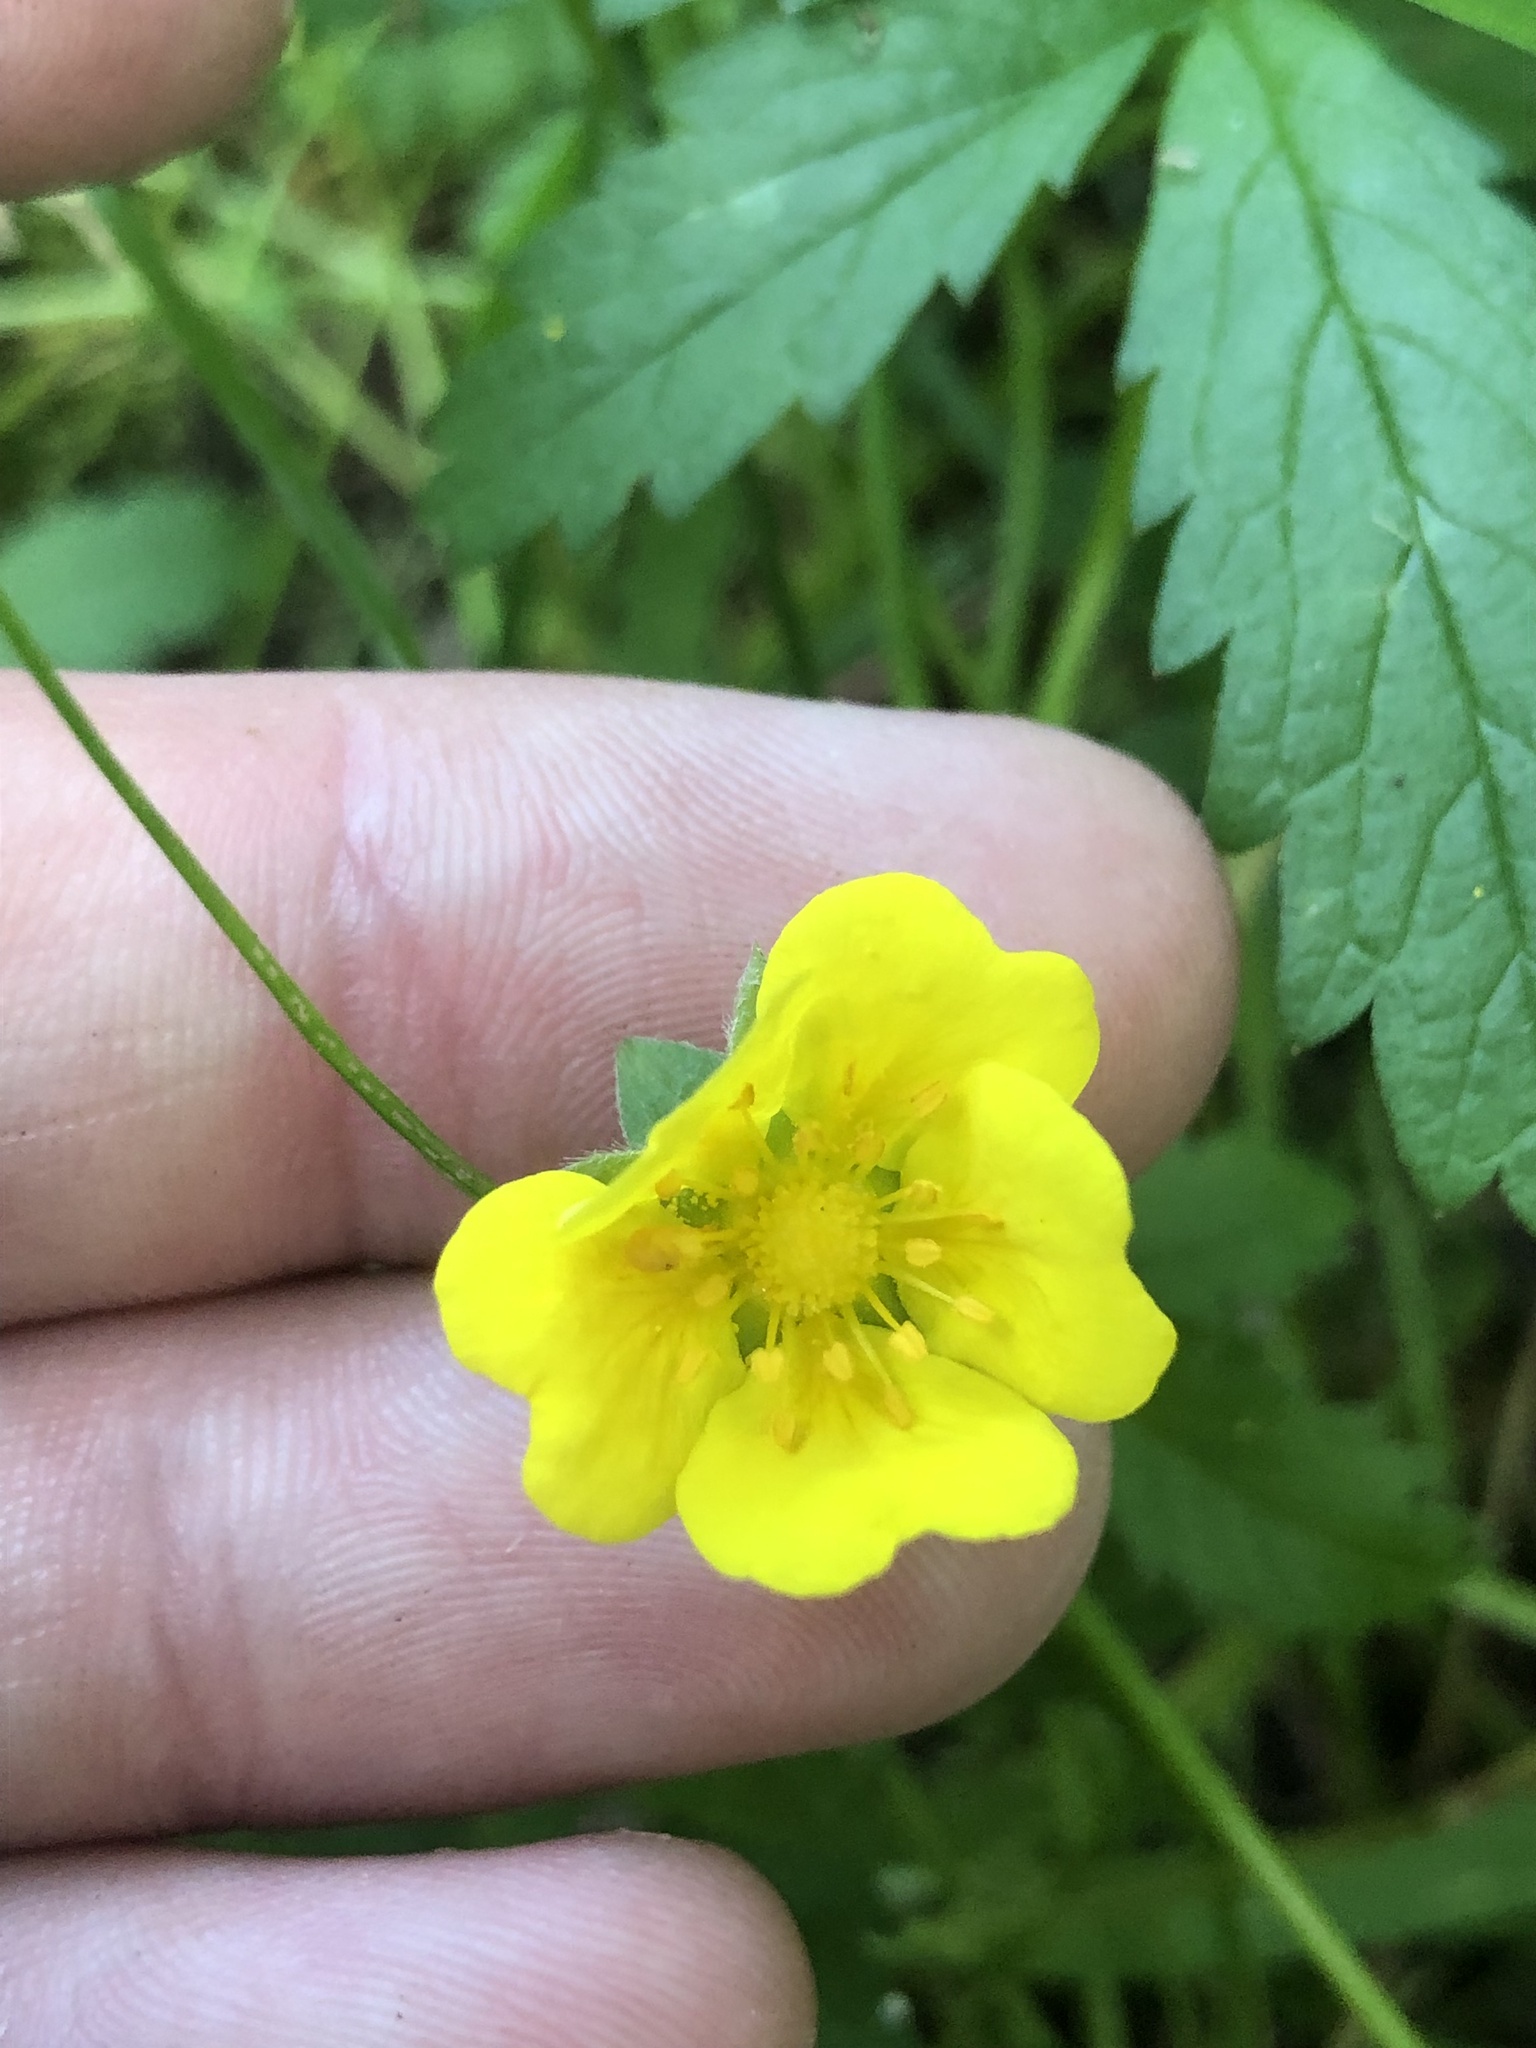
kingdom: Plantae
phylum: Tracheophyta
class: Magnoliopsida
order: Rosales
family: Rosaceae
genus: Potentilla
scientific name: Potentilla reptans
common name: Creeping cinquefoil
